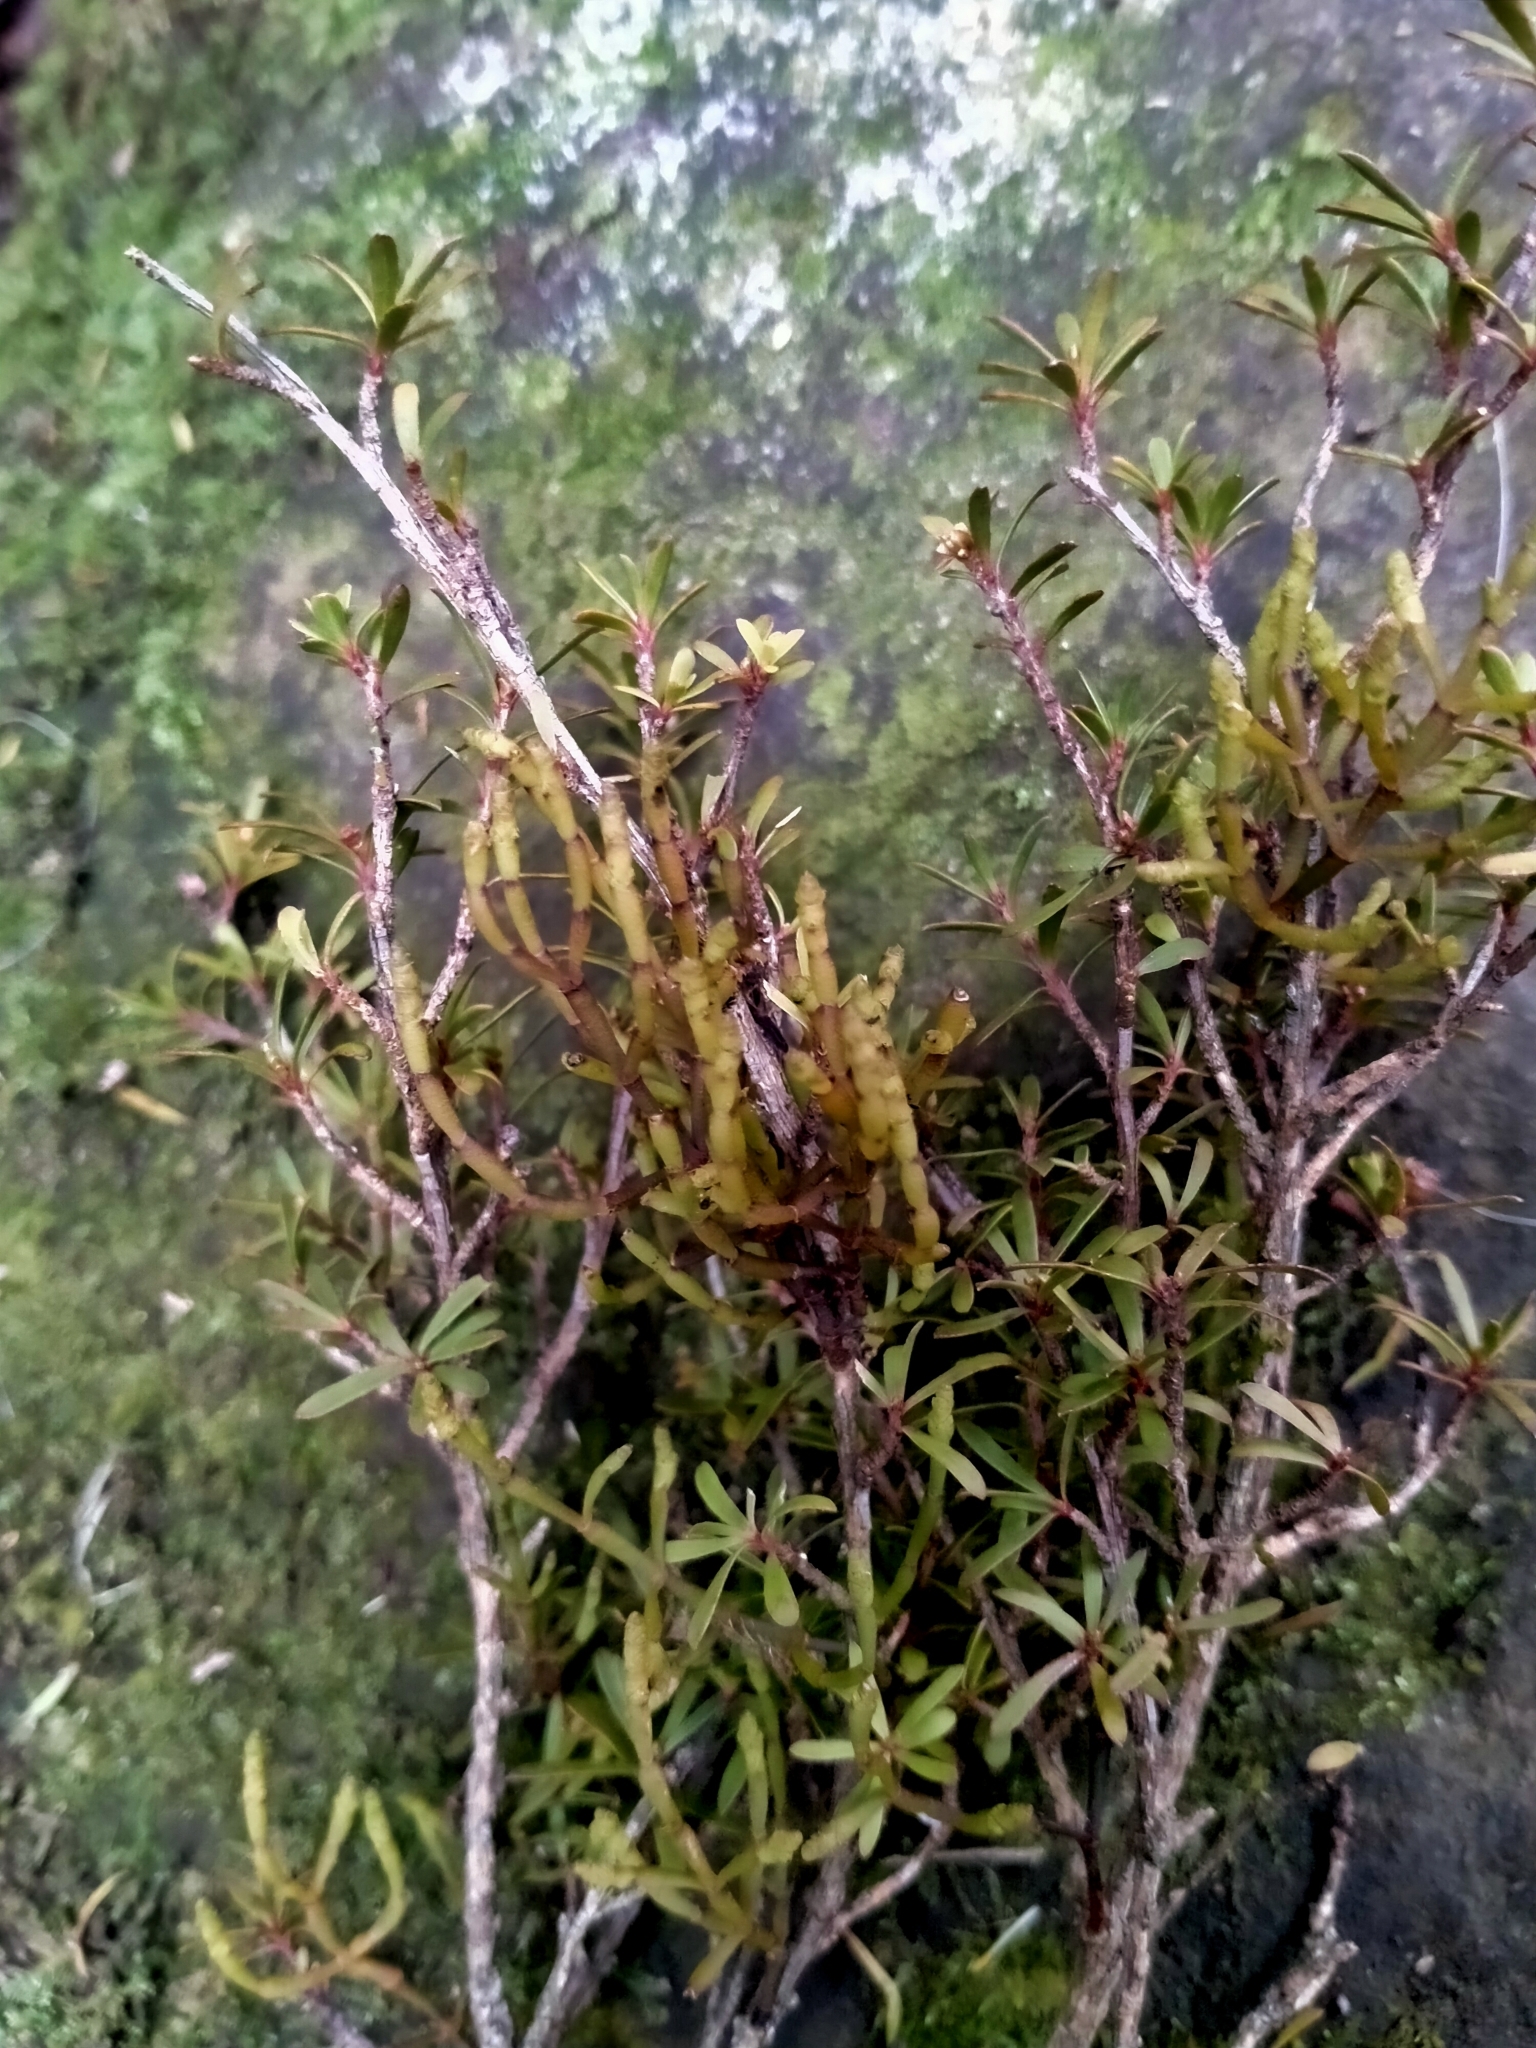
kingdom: Plantae
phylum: Tracheophyta
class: Magnoliopsida
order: Santalales
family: Viscaceae
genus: Korthalsella
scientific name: Korthalsella salicornioides
